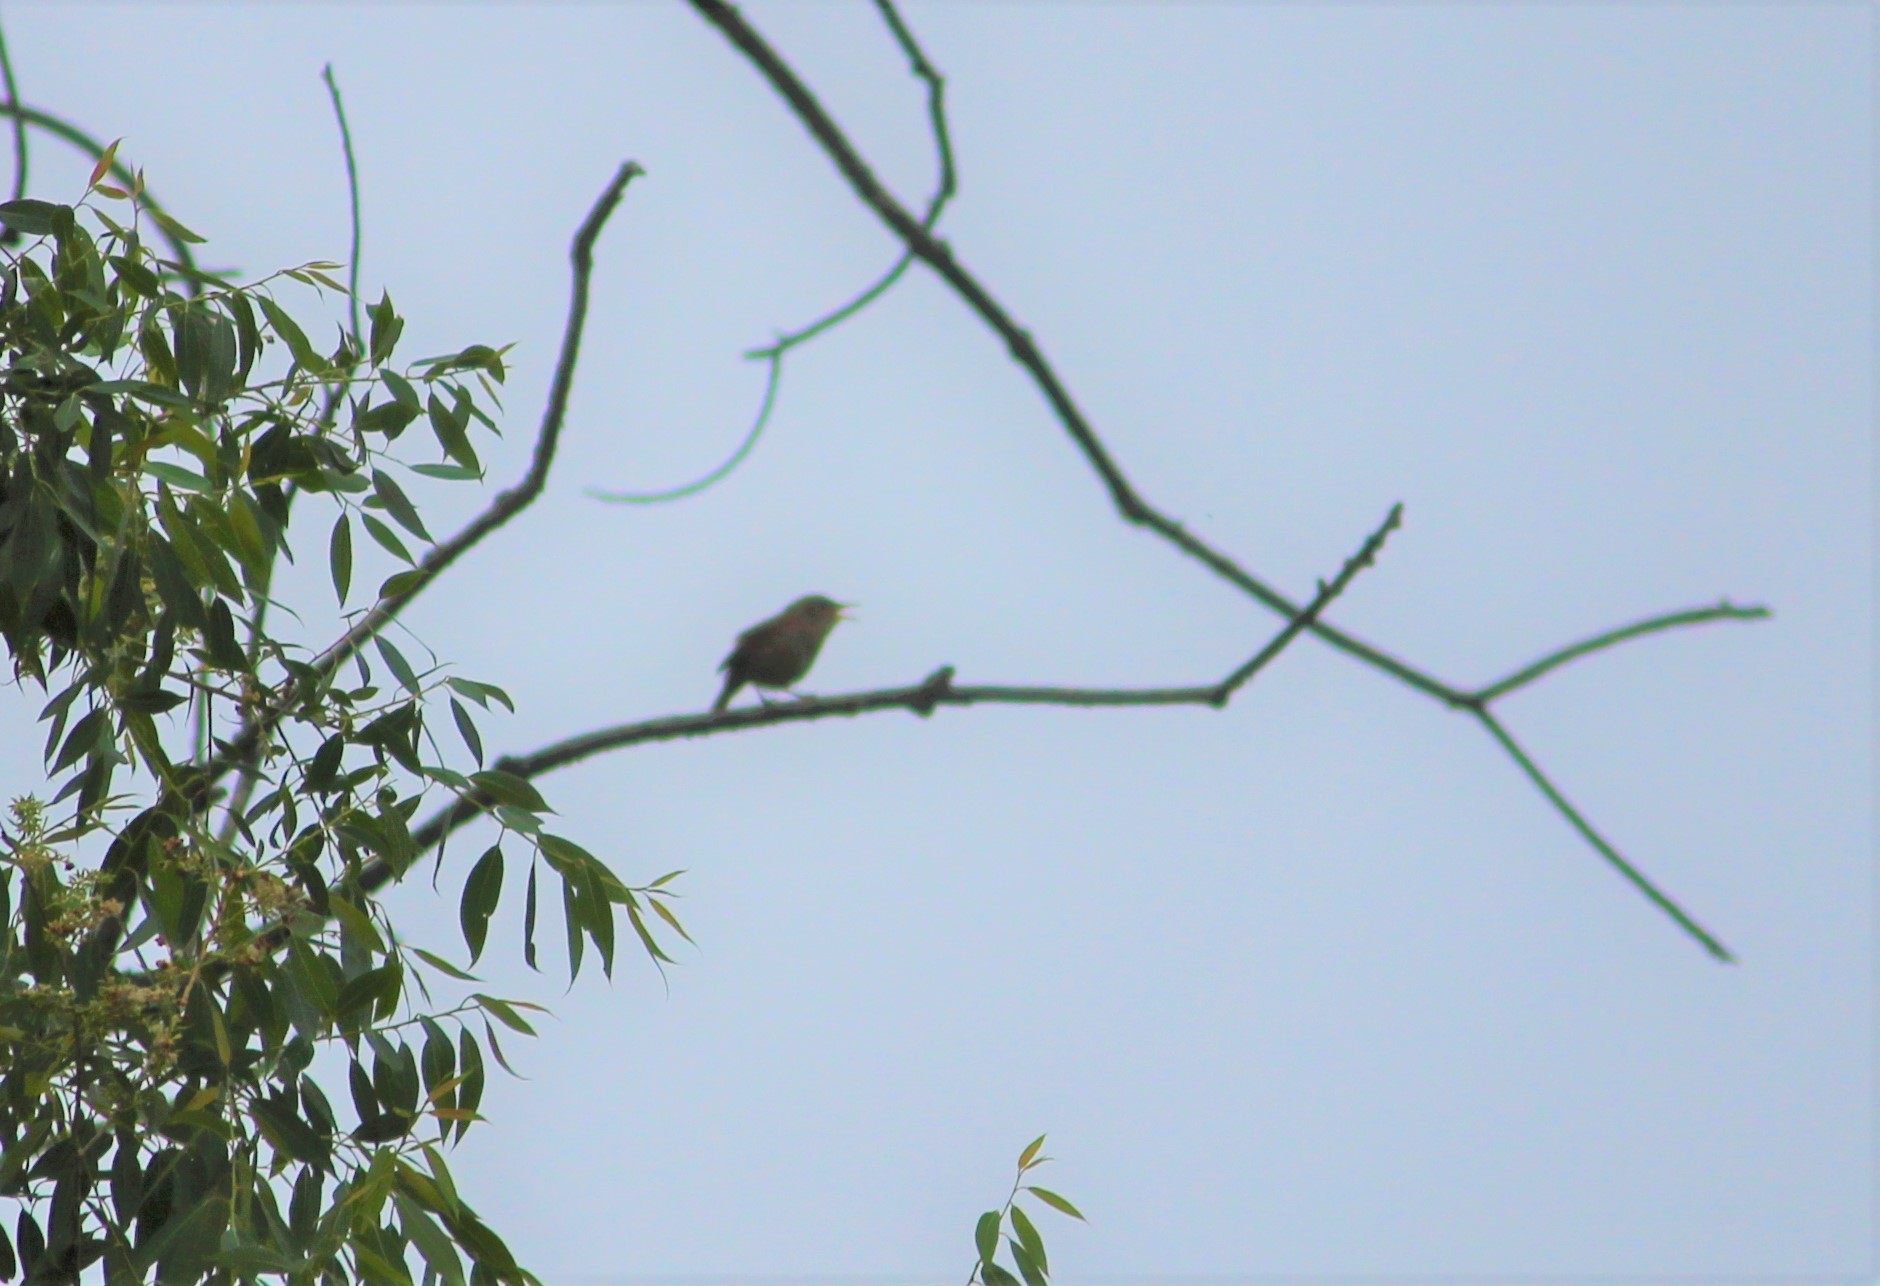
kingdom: Animalia
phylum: Chordata
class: Aves
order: Passeriformes
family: Troglodytidae
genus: Troglodytes
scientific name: Troglodytes aedon
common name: House wren
